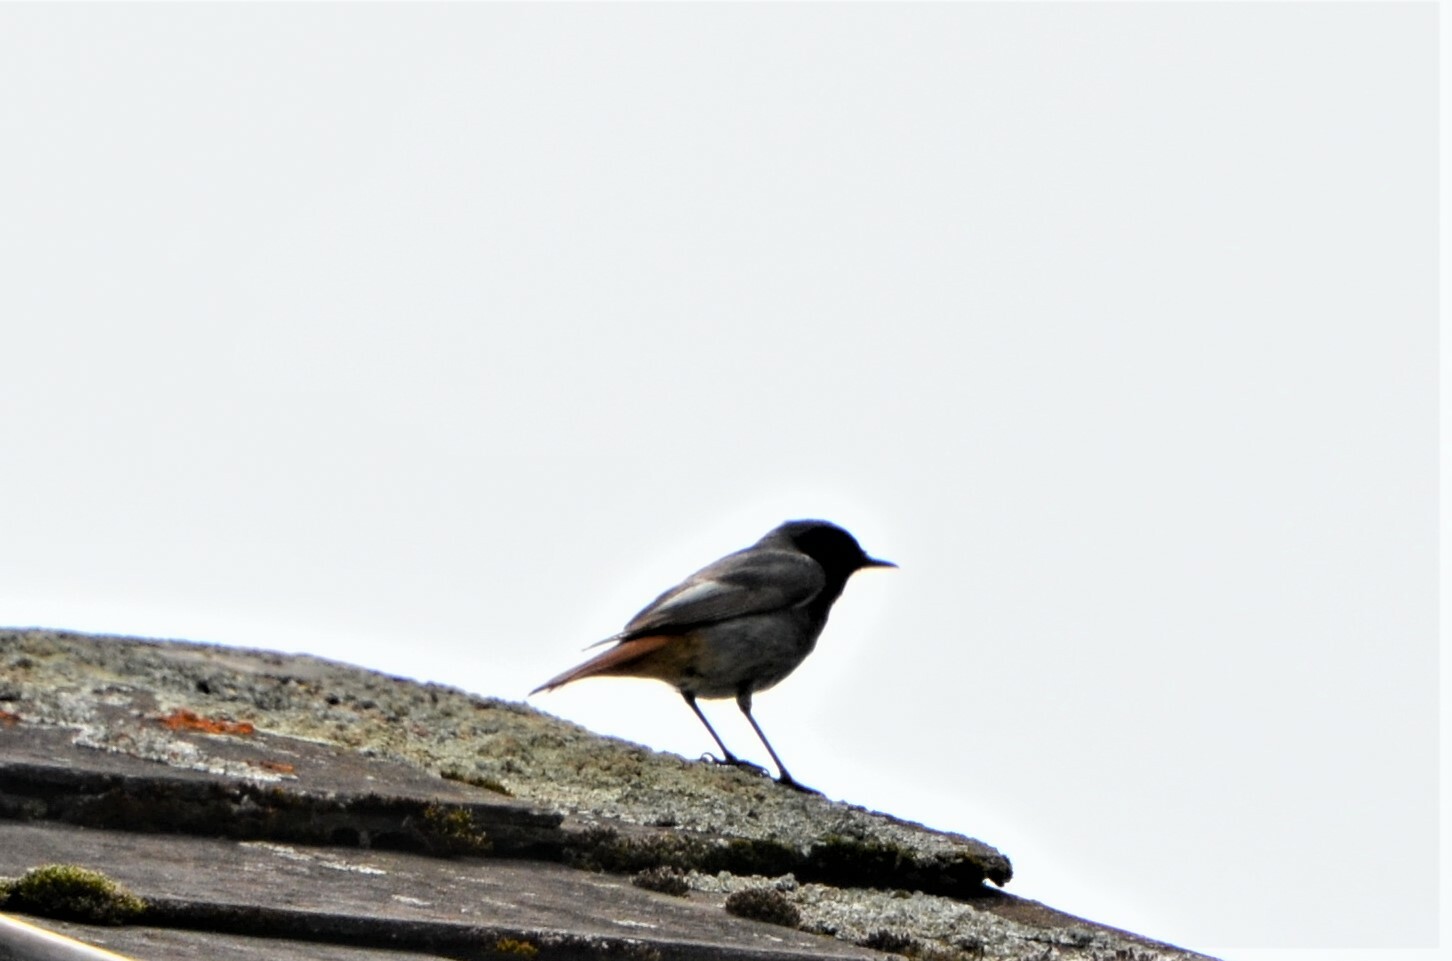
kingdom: Animalia
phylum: Chordata
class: Aves
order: Passeriformes
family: Muscicapidae
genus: Phoenicurus
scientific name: Phoenicurus ochruros
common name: Black redstart
